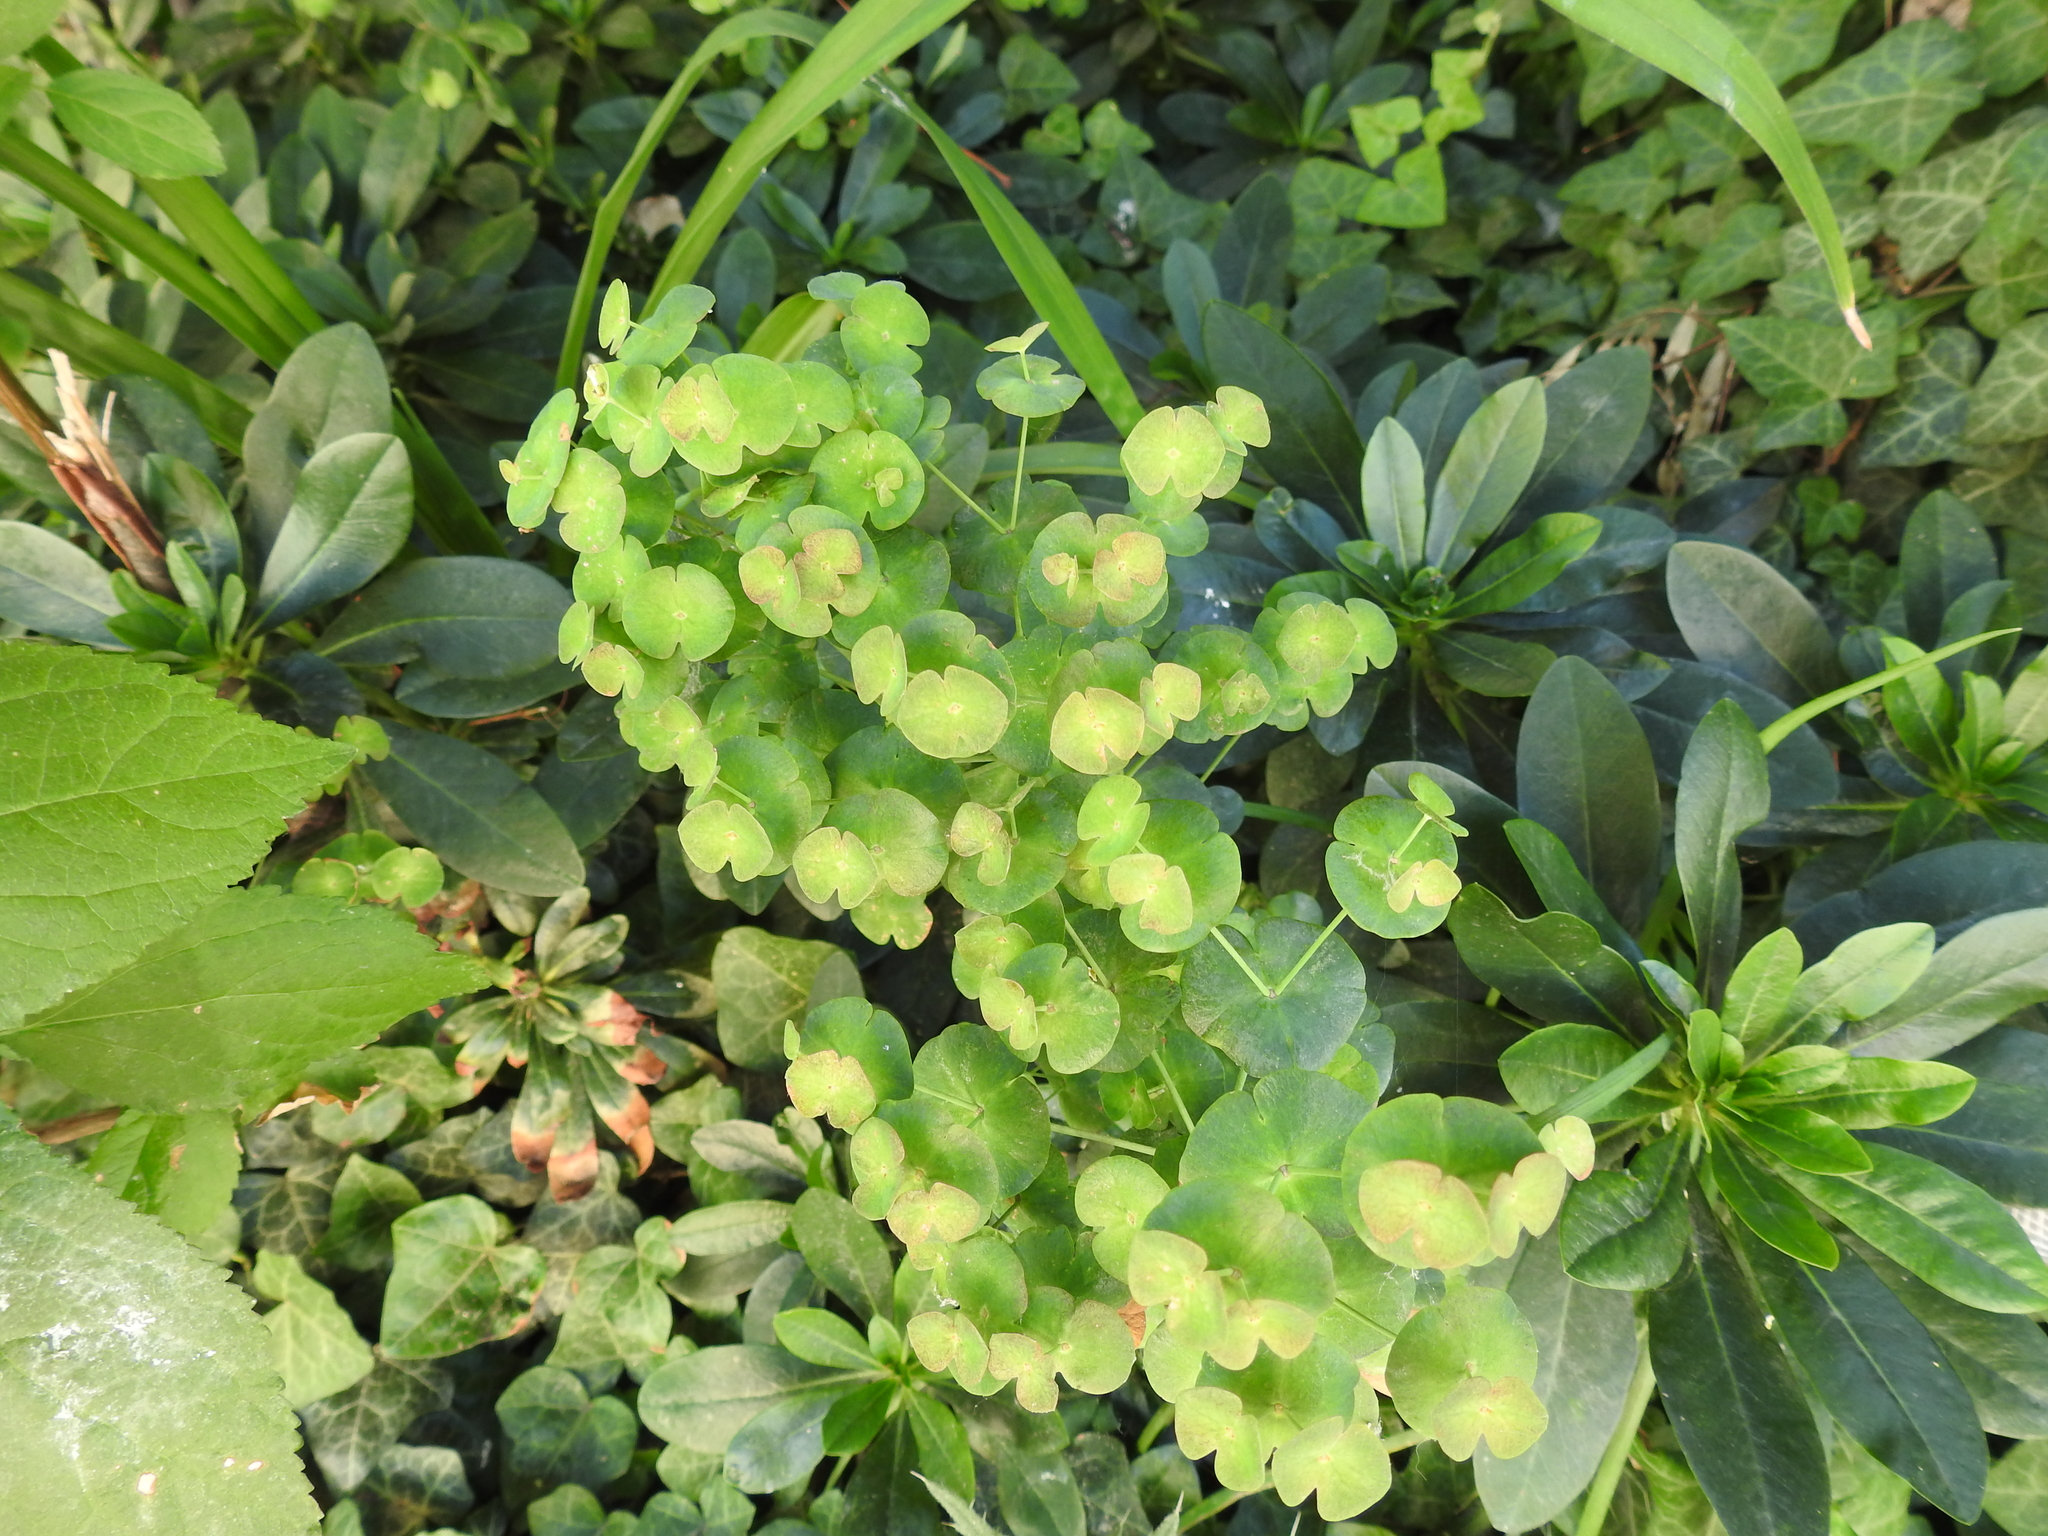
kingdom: Plantae
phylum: Tracheophyta
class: Magnoliopsida
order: Malpighiales
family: Euphorbiaceae
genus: Euphorbia
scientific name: Euphorbia amygdaloides
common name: Wood spurge
